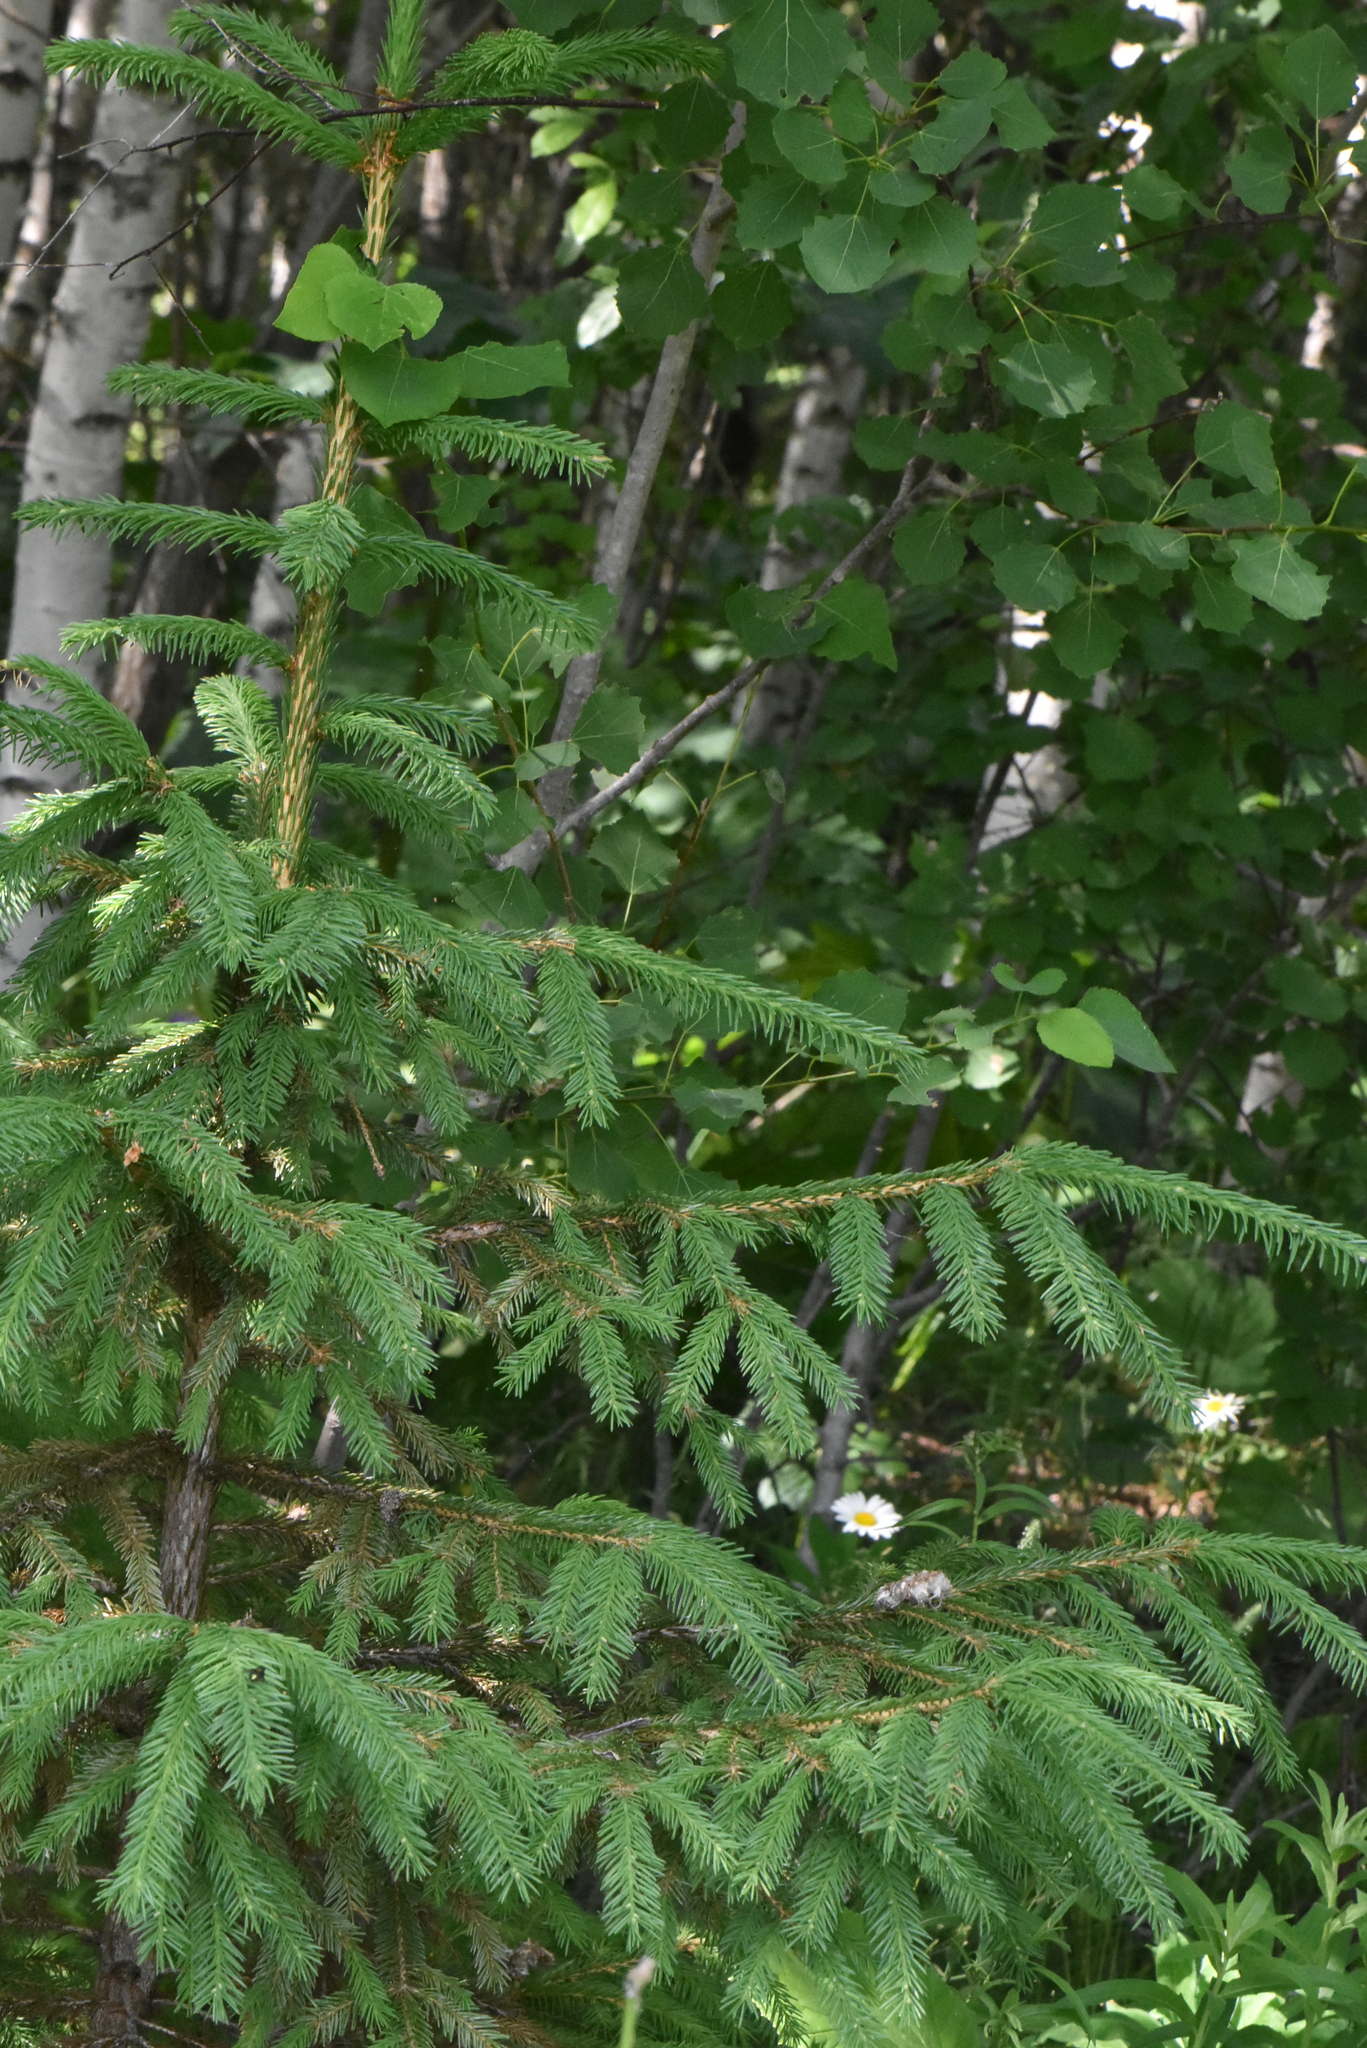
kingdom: Plantae
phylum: Tracheophyta
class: Pinopsida
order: Pinales
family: Pinaceae
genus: Picea
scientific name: Picea abies
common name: Norway spruce
